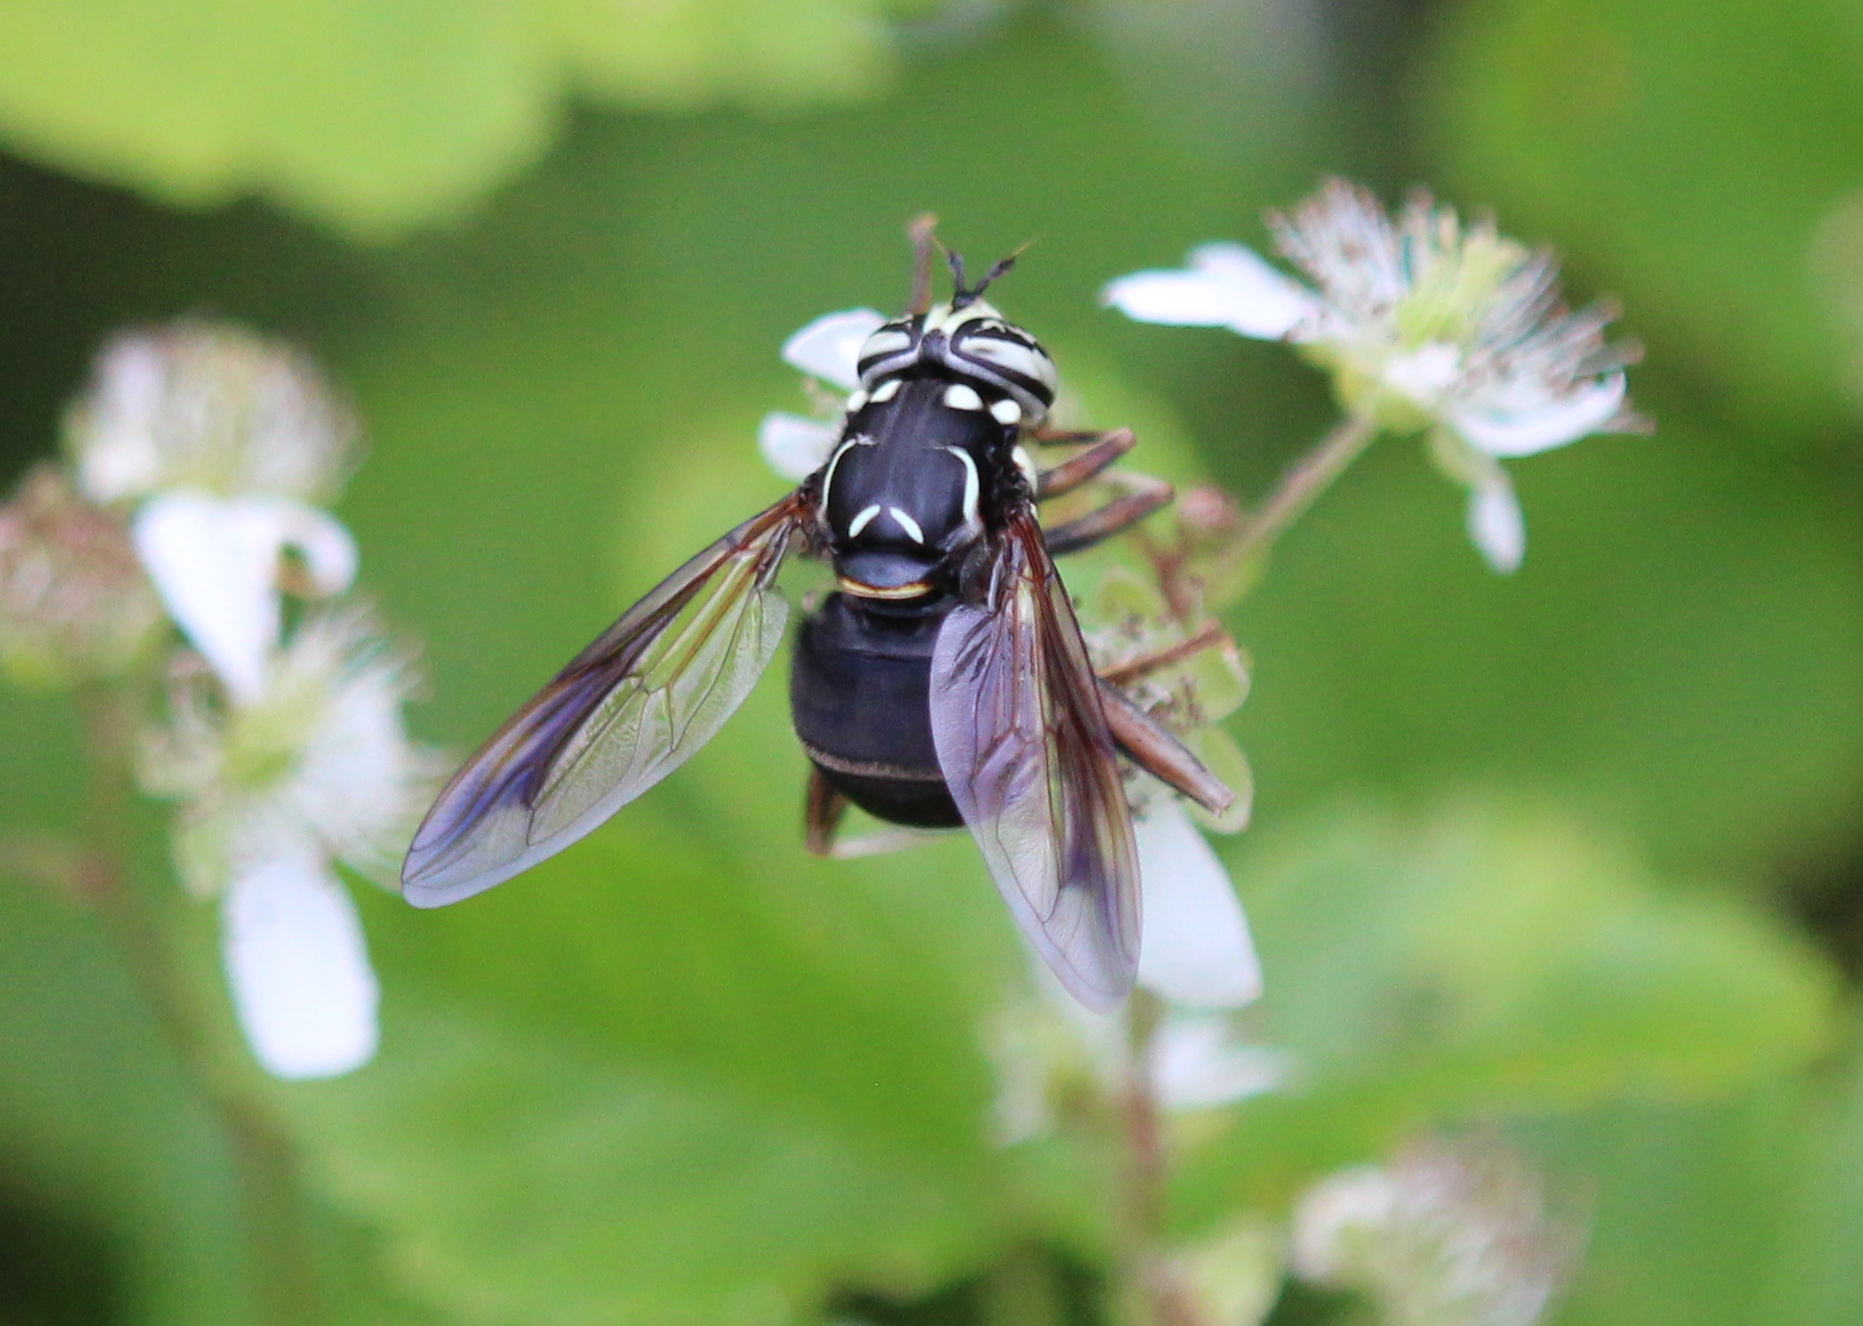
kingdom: Animalia
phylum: Arthropoda
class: Insecta
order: Diptera
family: Syrphidae
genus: Spilomyia
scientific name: Spilomyia fusca
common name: Bald-faced hornet fly
